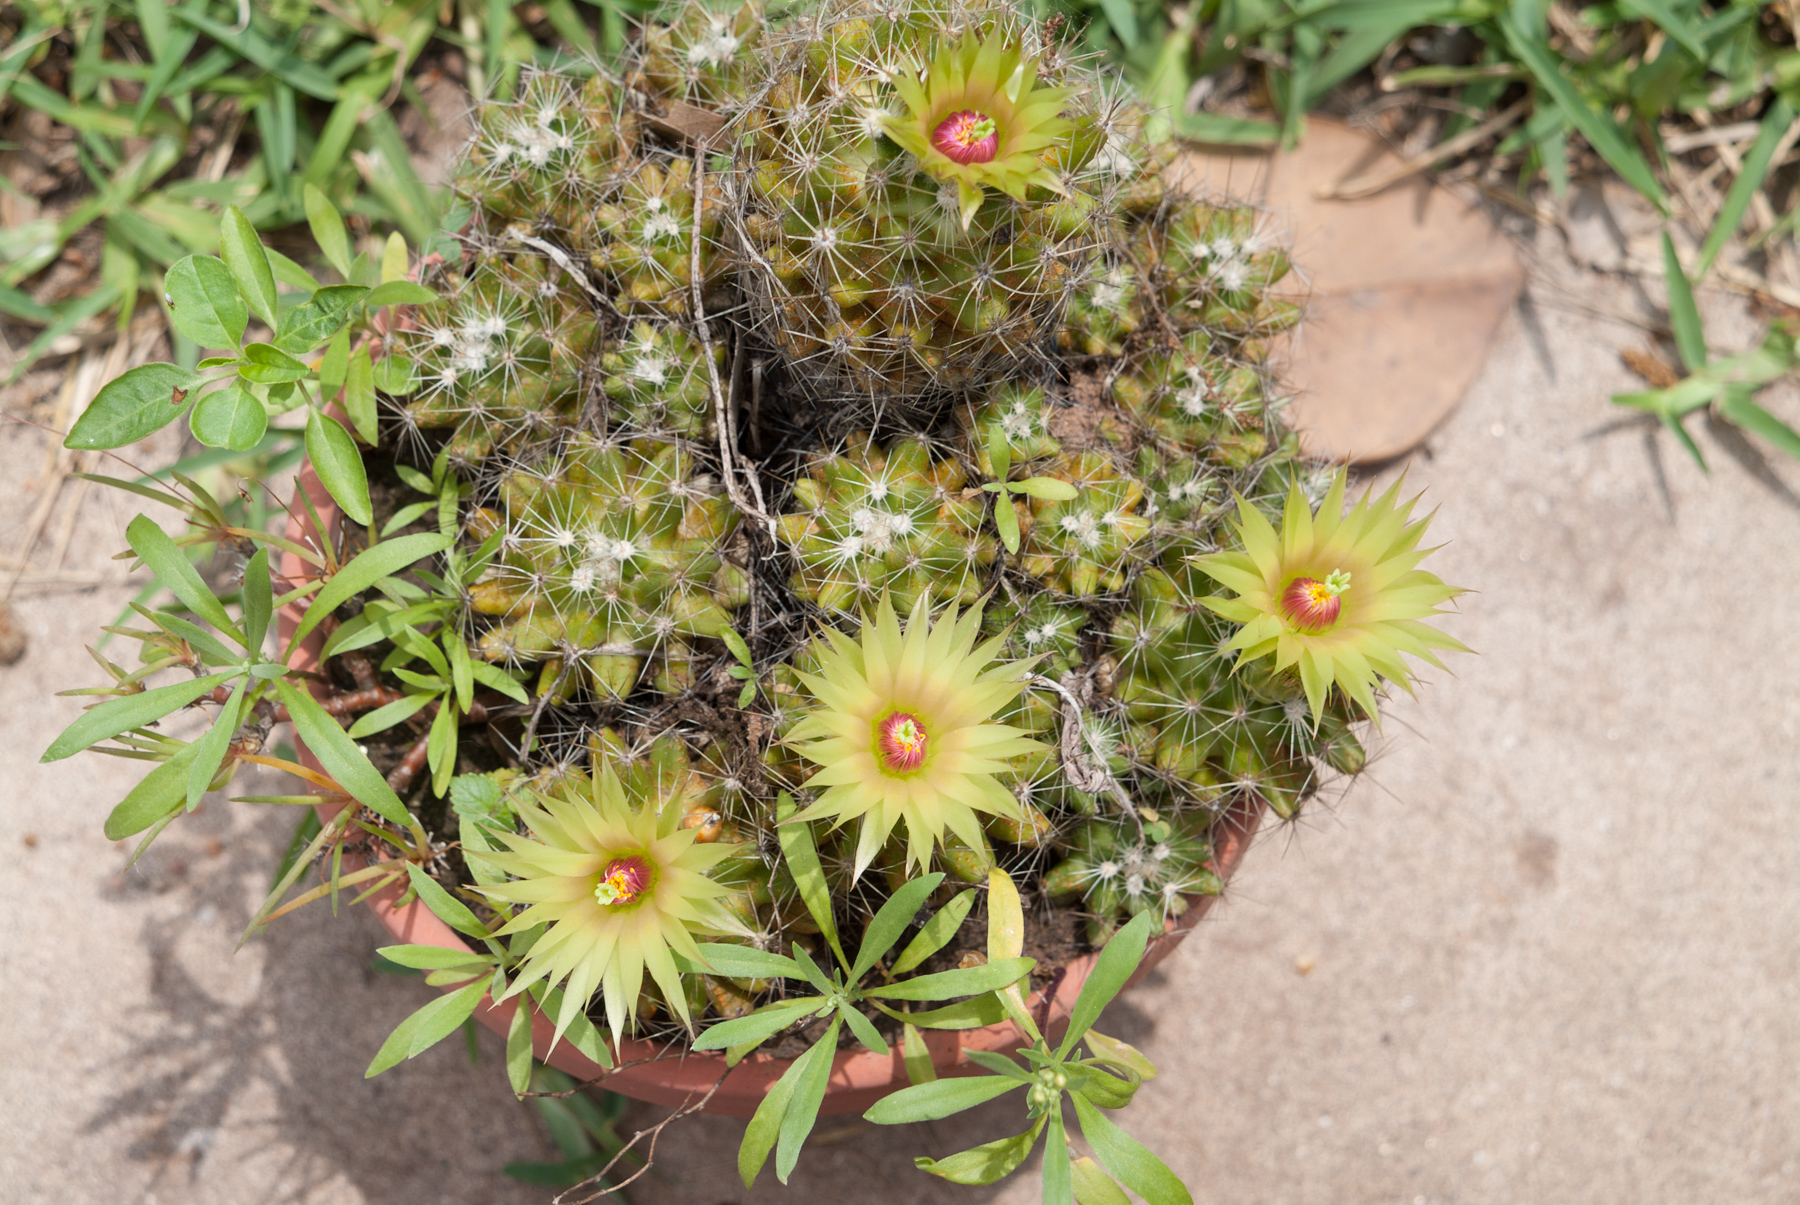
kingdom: Plantae
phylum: Tracheophyta
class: Magnoliopsida
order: Caryophyllales
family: Cactaceae
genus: Pelecyphora
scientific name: Pelecyphora missouriensis
